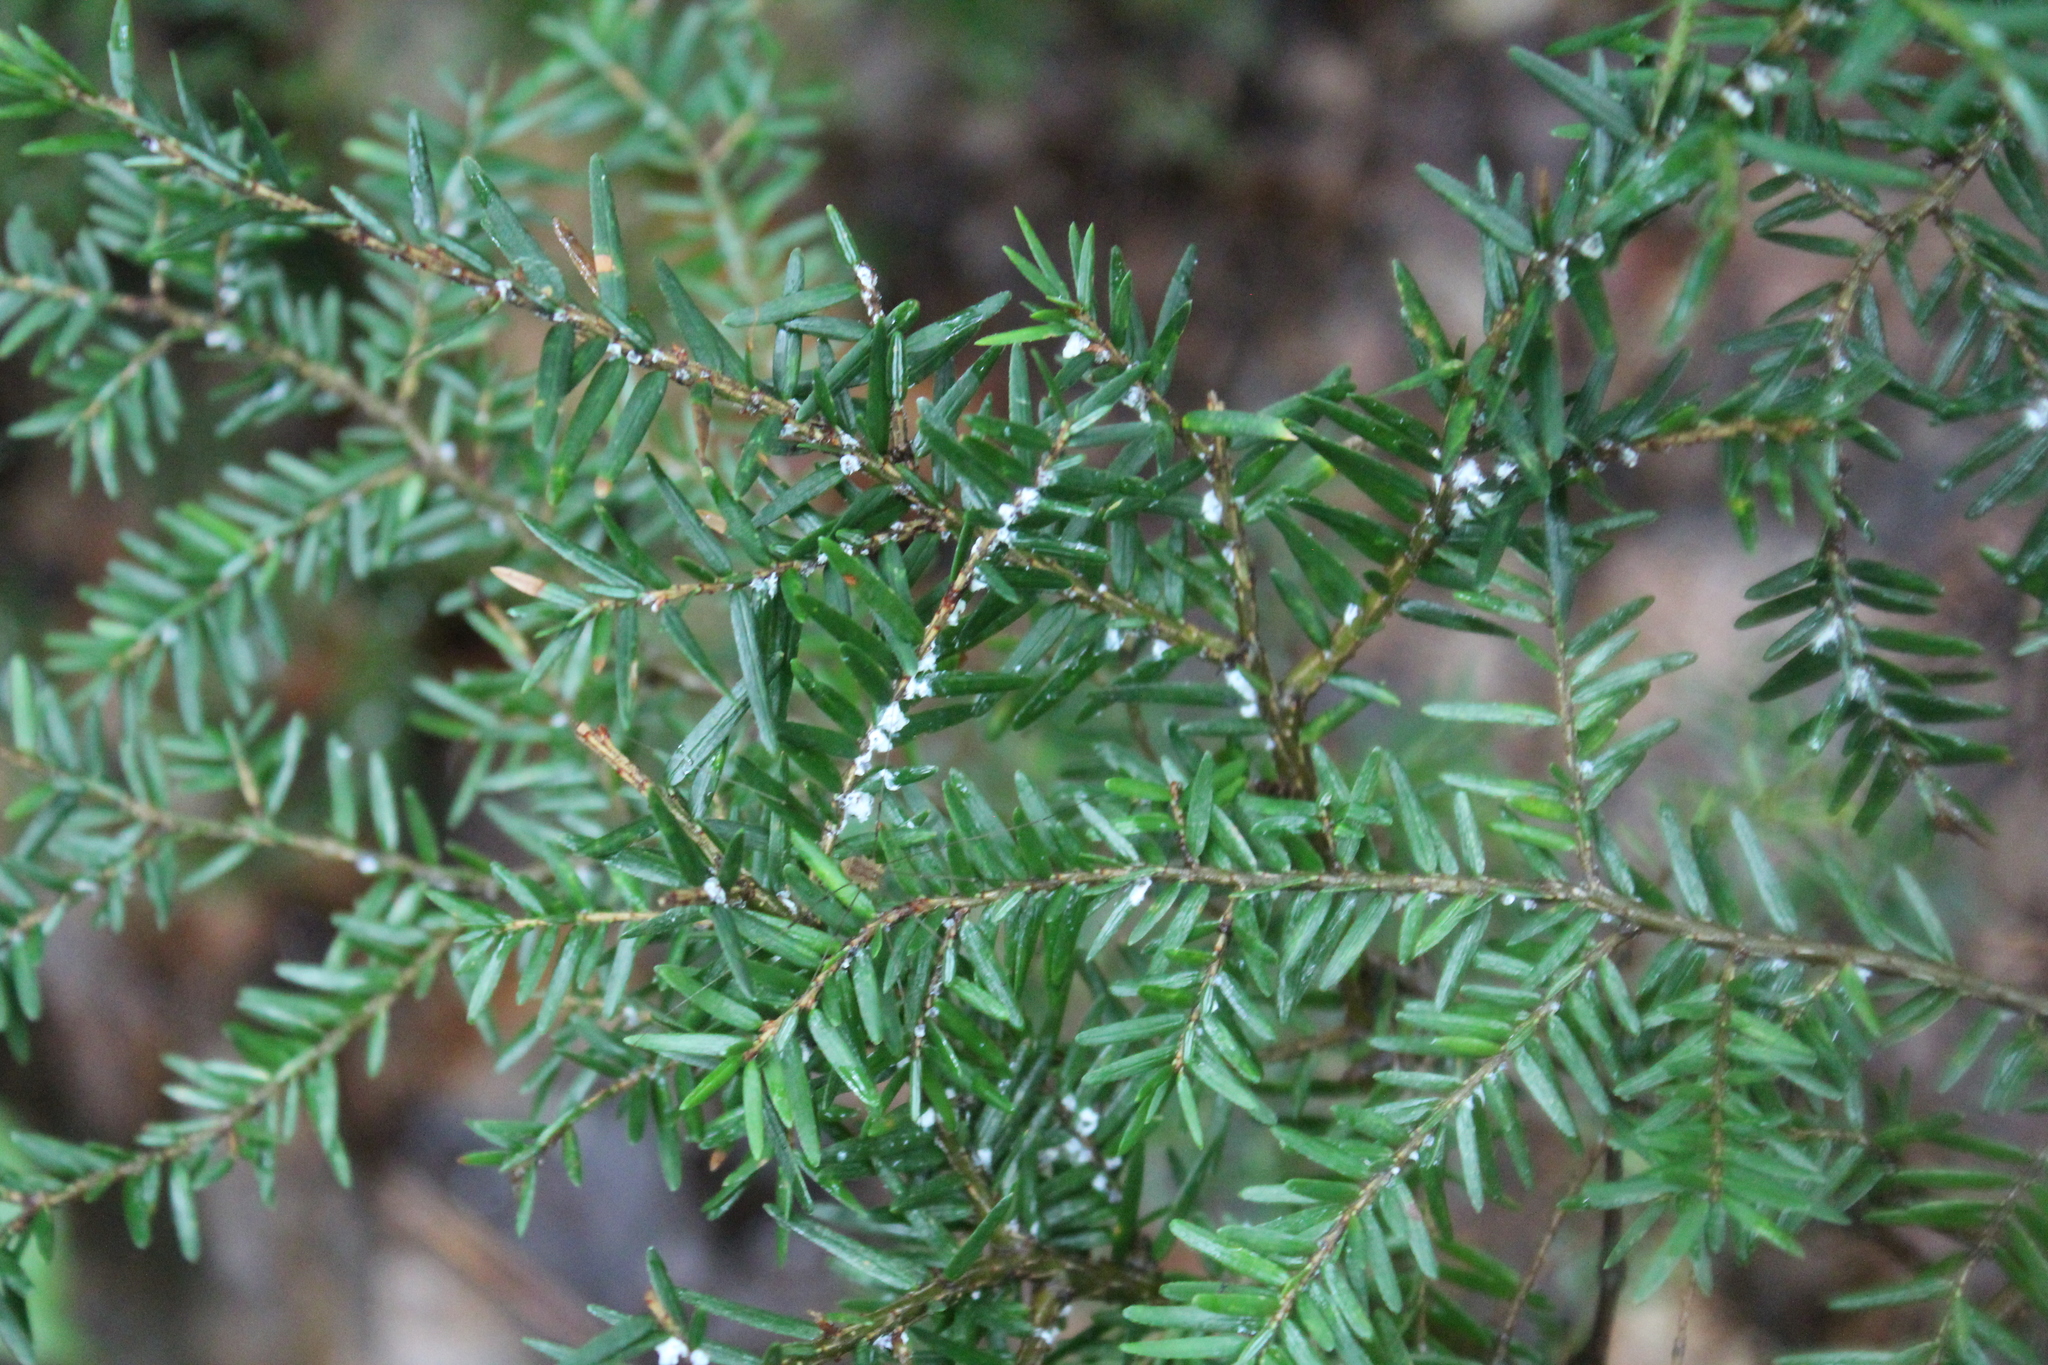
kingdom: Animalia
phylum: Arthropoda
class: Insecta
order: Hemiptera
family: Adelgidae
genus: Adelges
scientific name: Adelges tsugae
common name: Hemlock woolly adelgid
